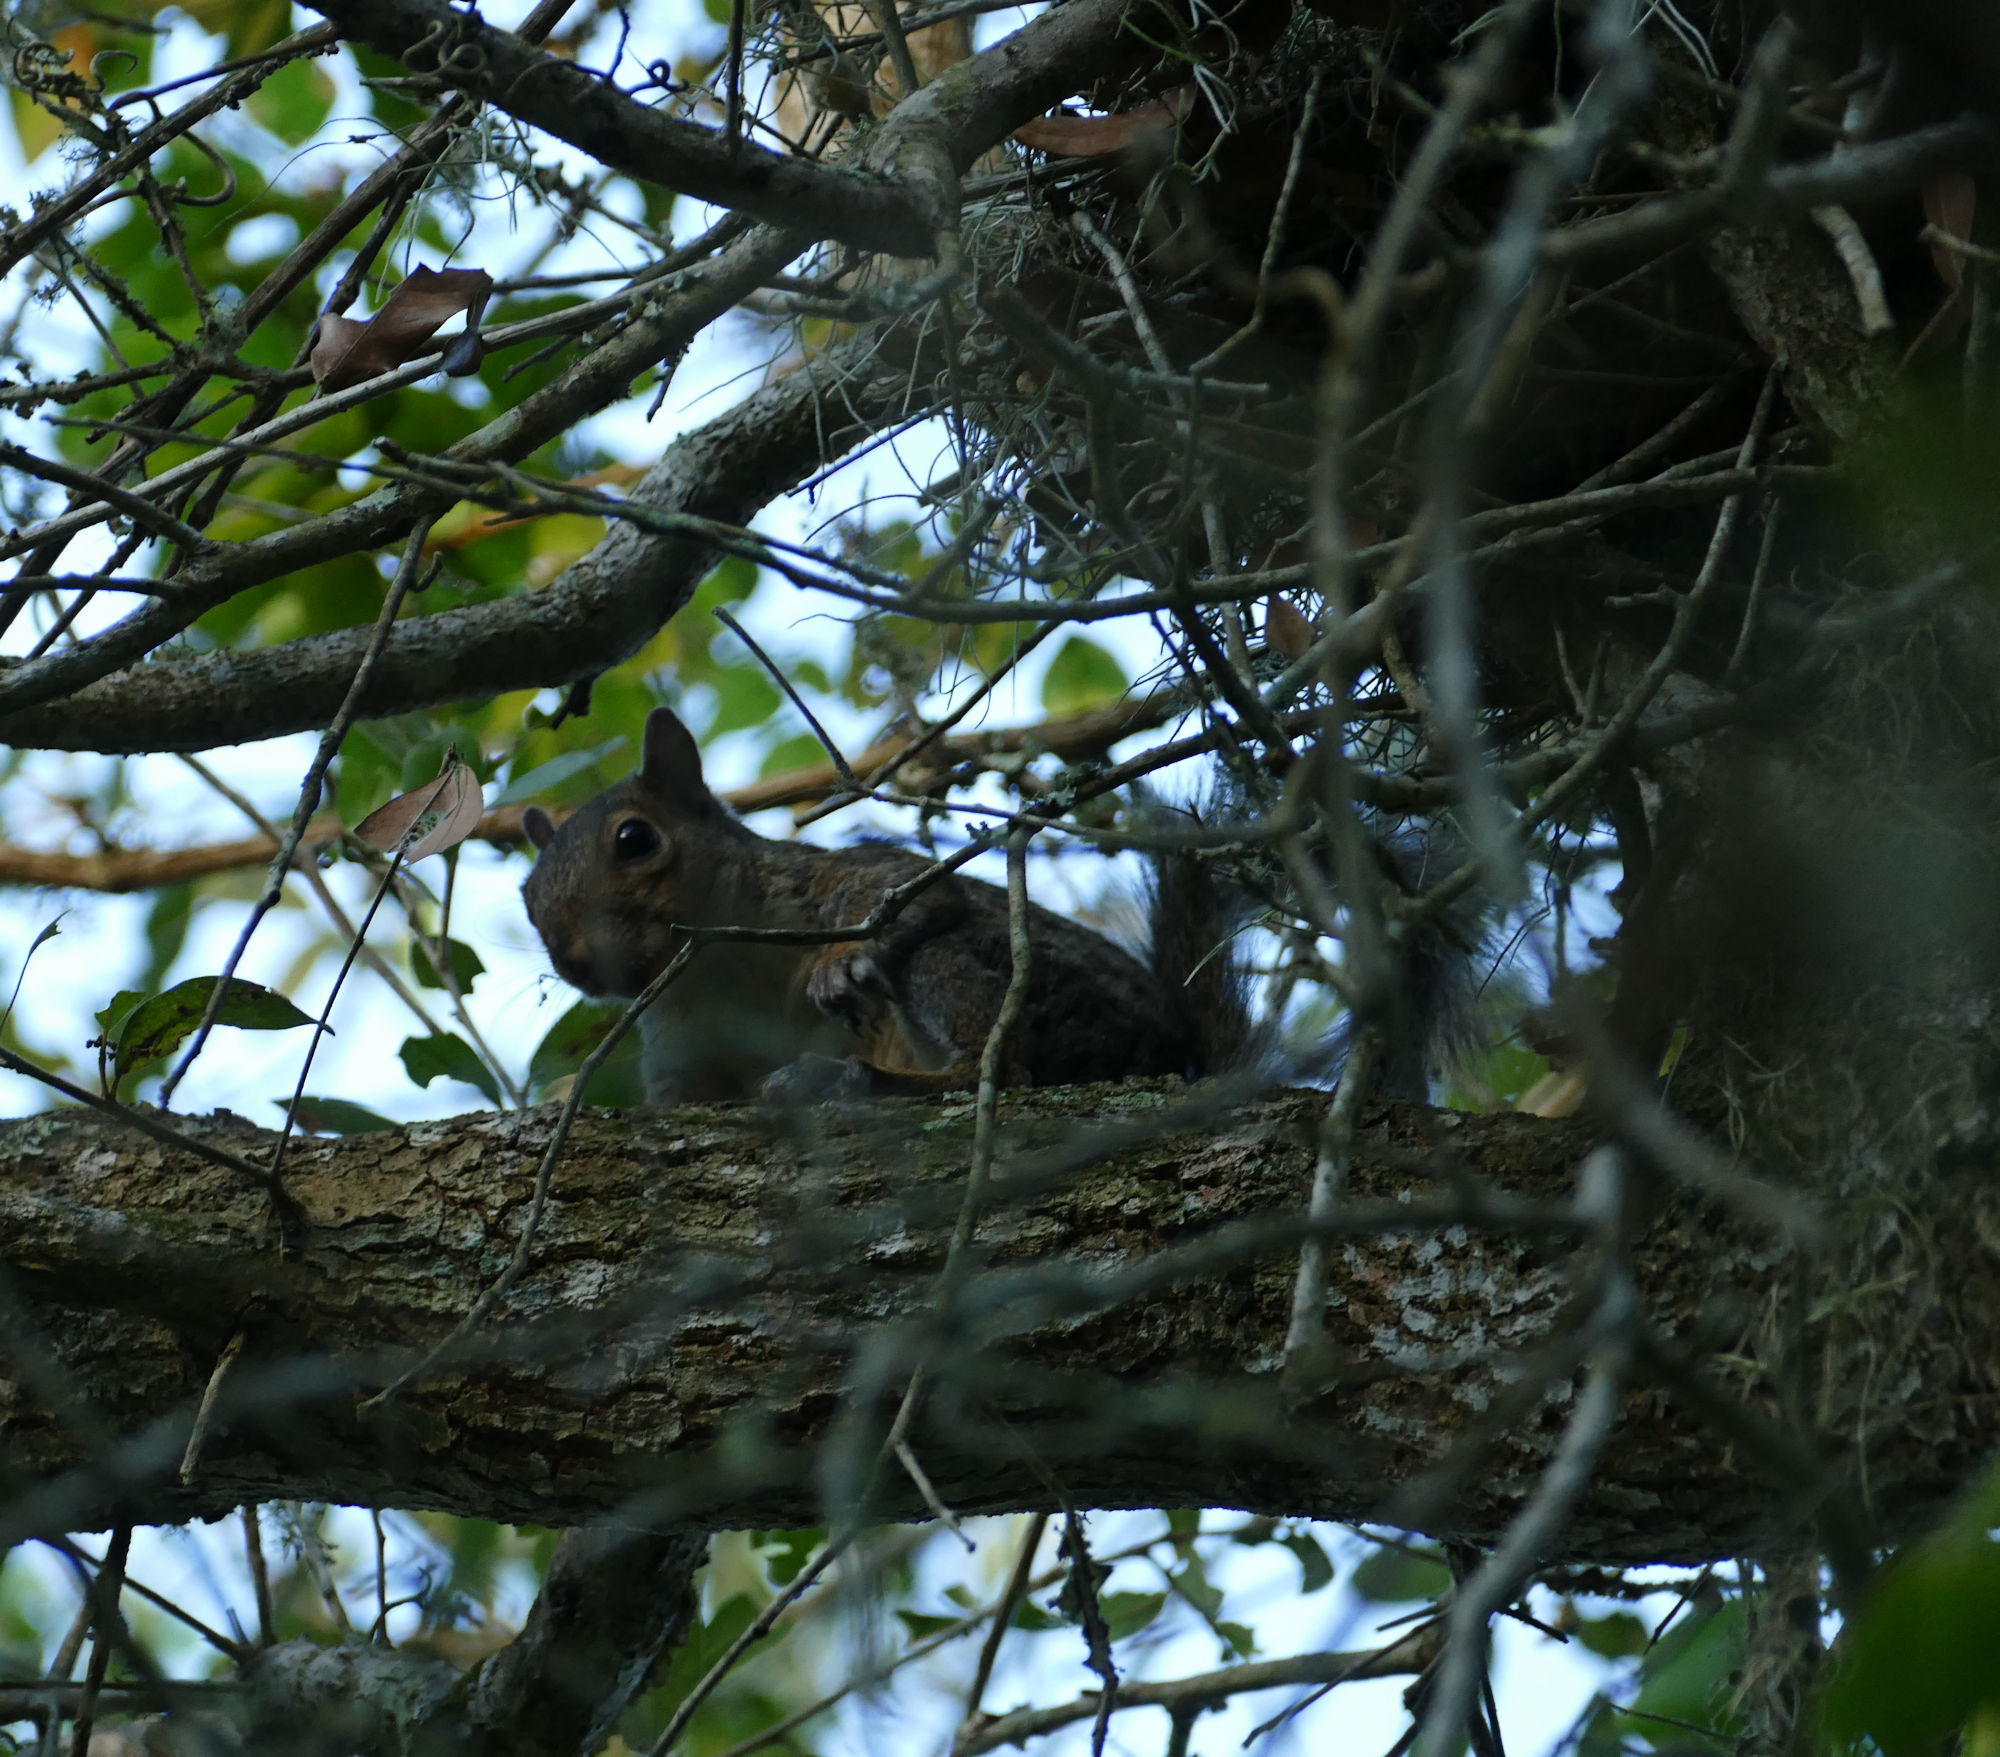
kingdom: Animalia
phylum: Chordata
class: Mammalia
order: Rodentia
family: Sciuridae
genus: Sciurus
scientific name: Sciurus niger
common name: Fox squirrel
